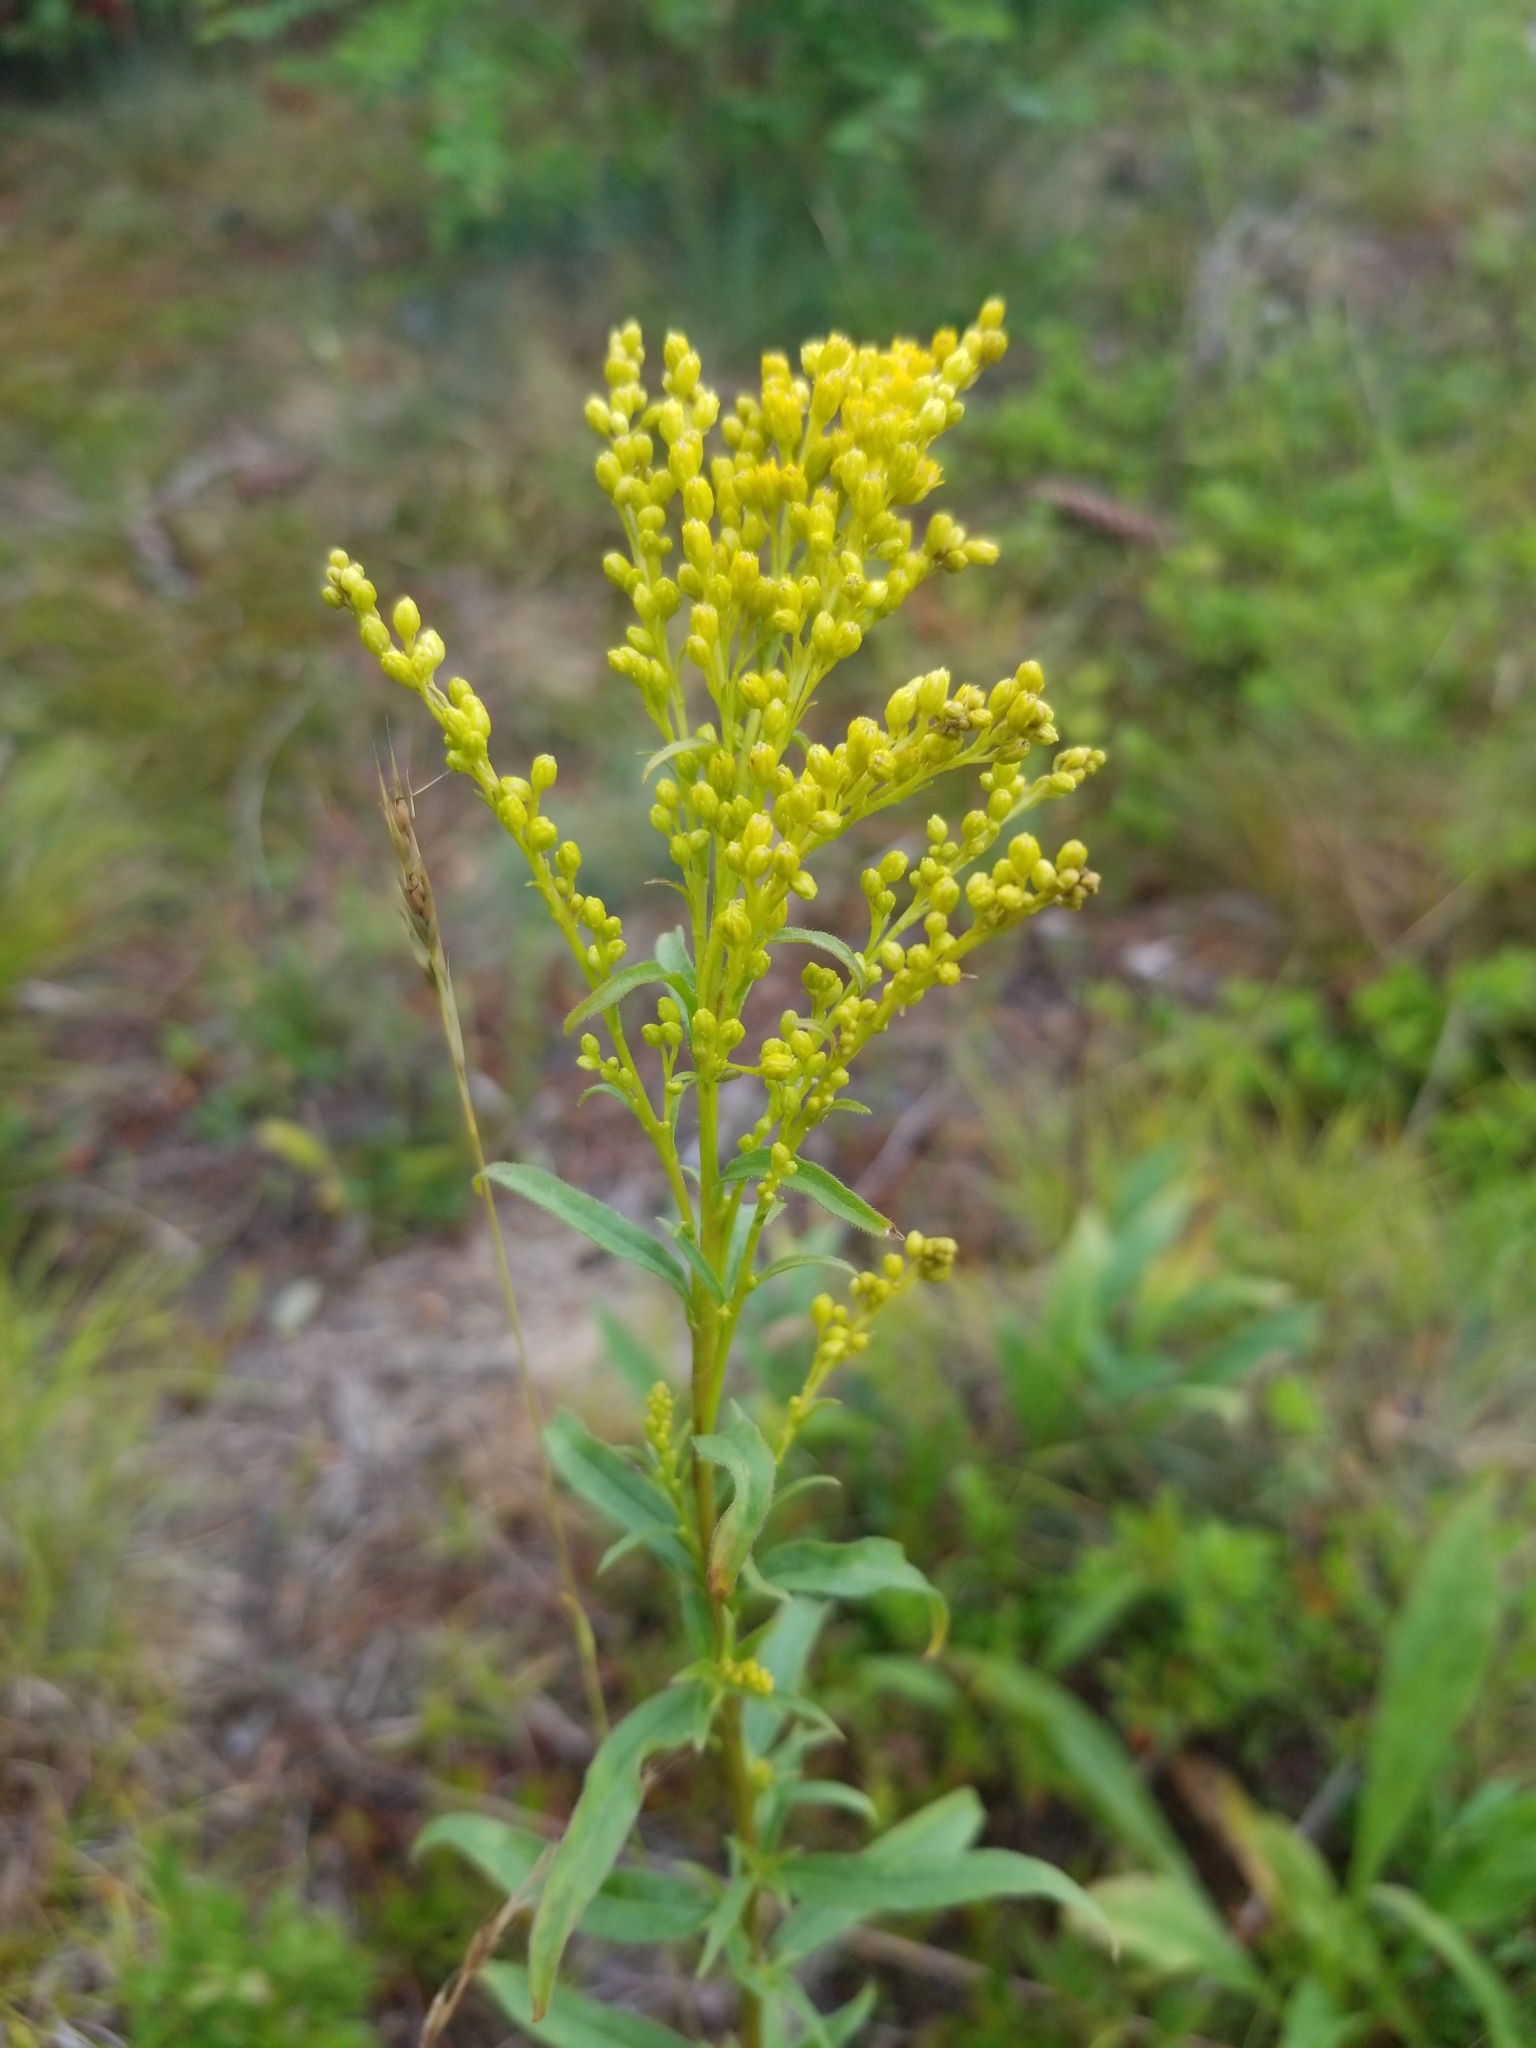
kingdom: Plantae
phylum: Tracheophyta
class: Magnoliopsida
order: Asterales
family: Asteraceae
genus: Solidago
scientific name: Solidago juncea
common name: Early goldenrod
